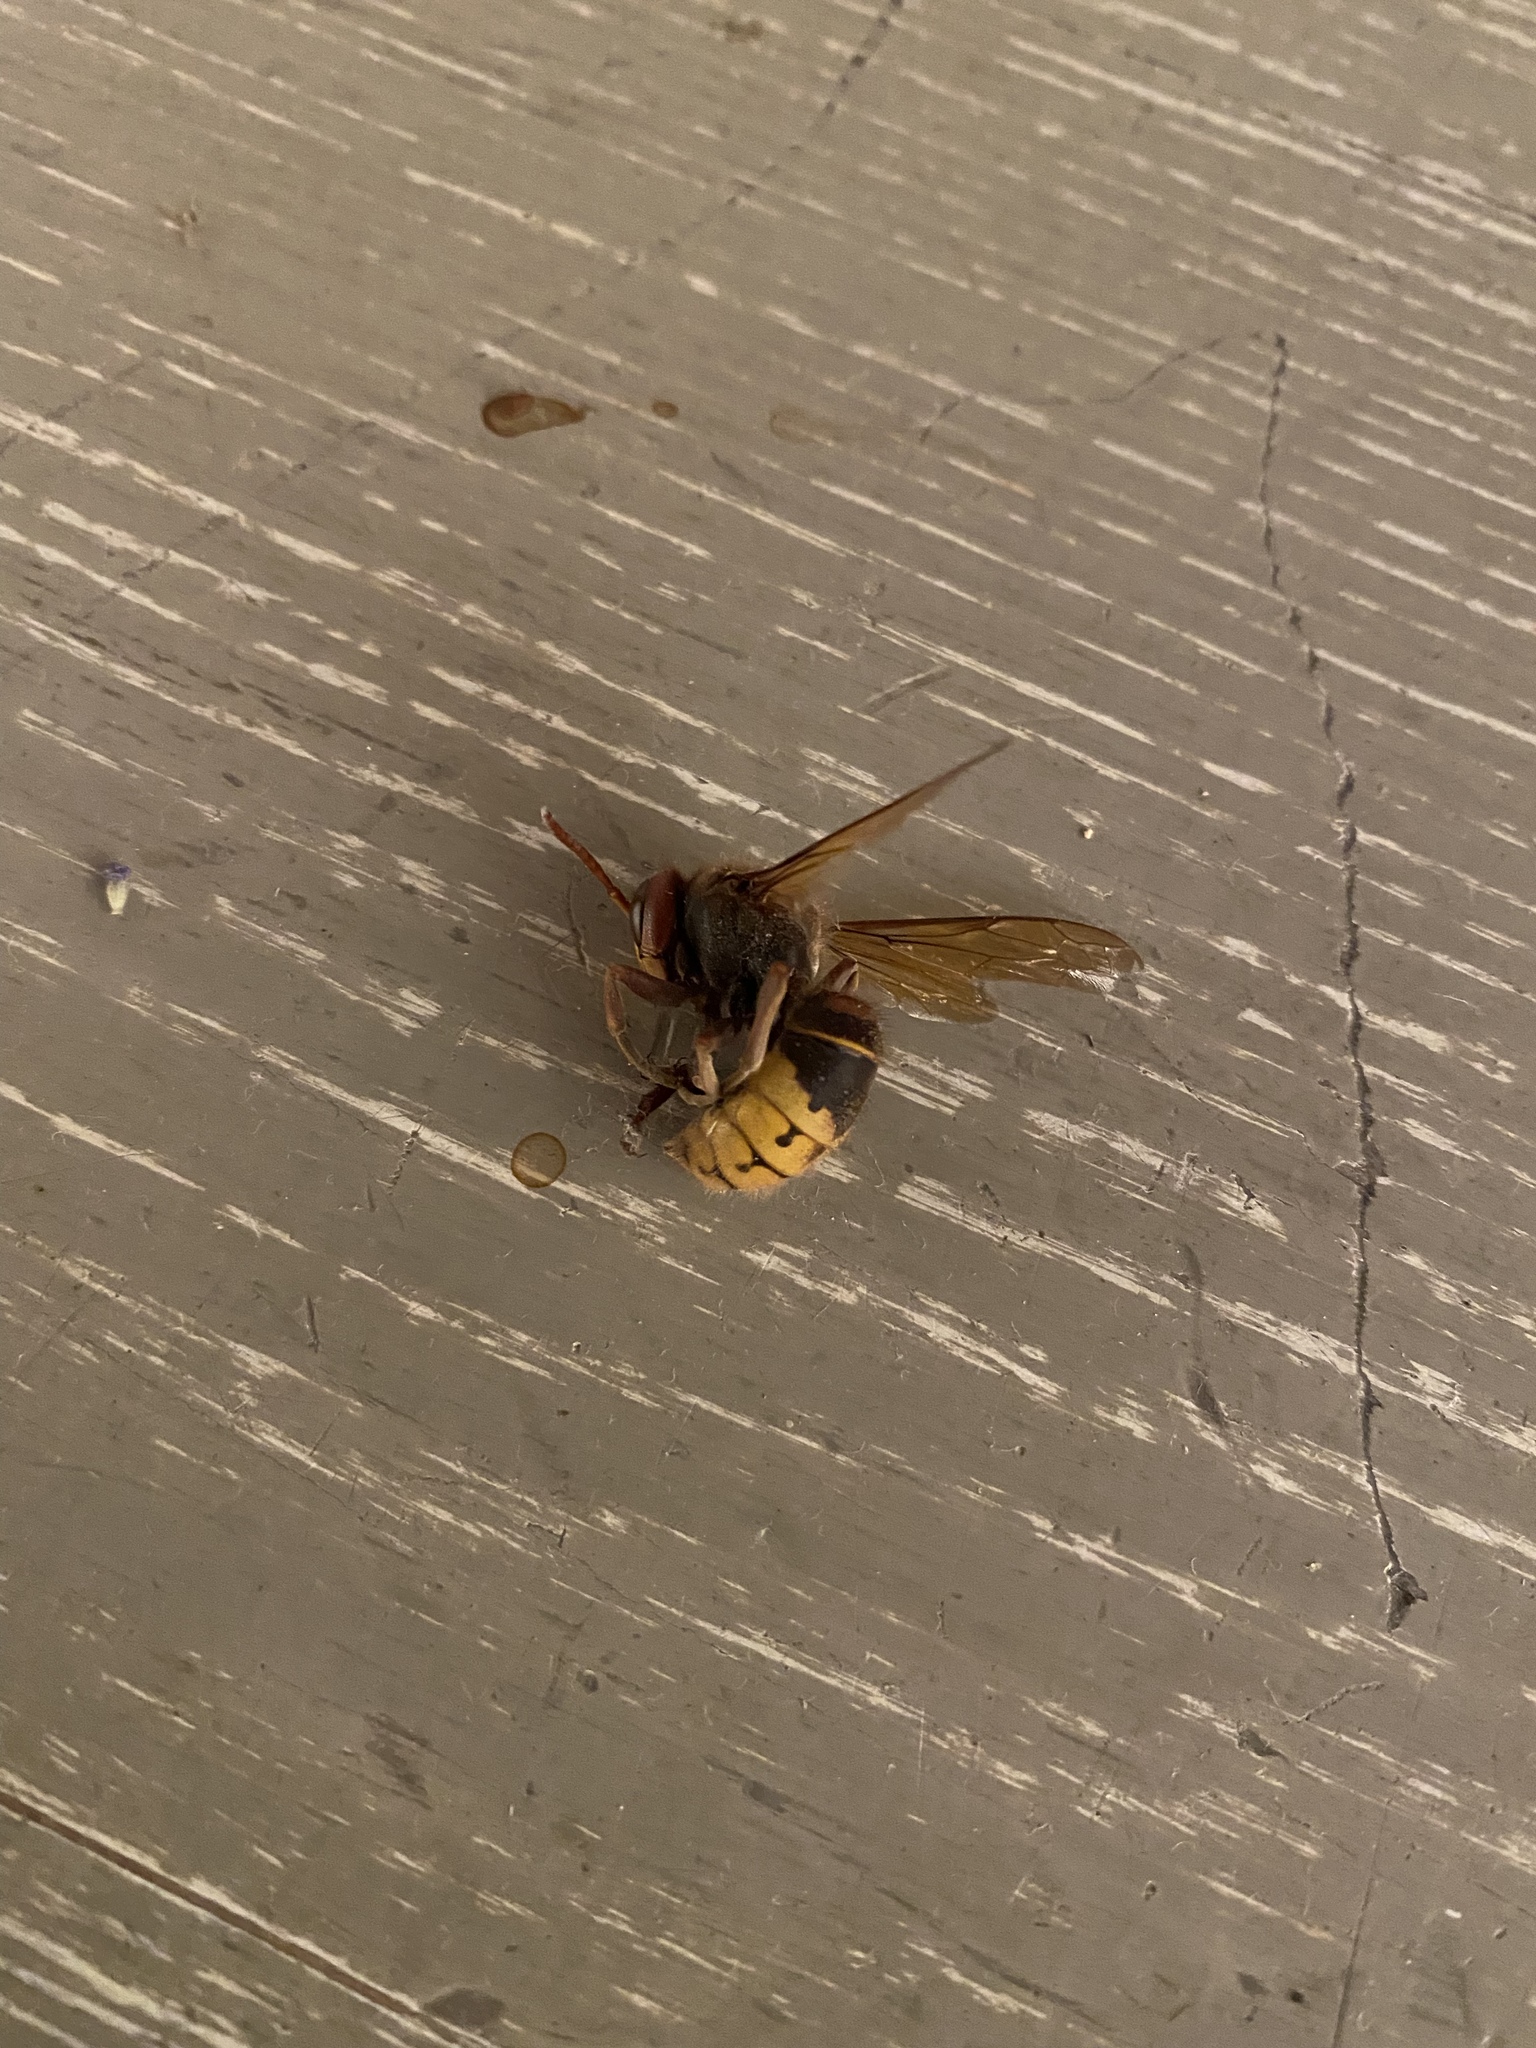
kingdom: Animalia
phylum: Arthropoda
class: Insecta
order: Hymenoptera
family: Vespidae
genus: Vespa
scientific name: Vespa crabro
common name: Hornet
